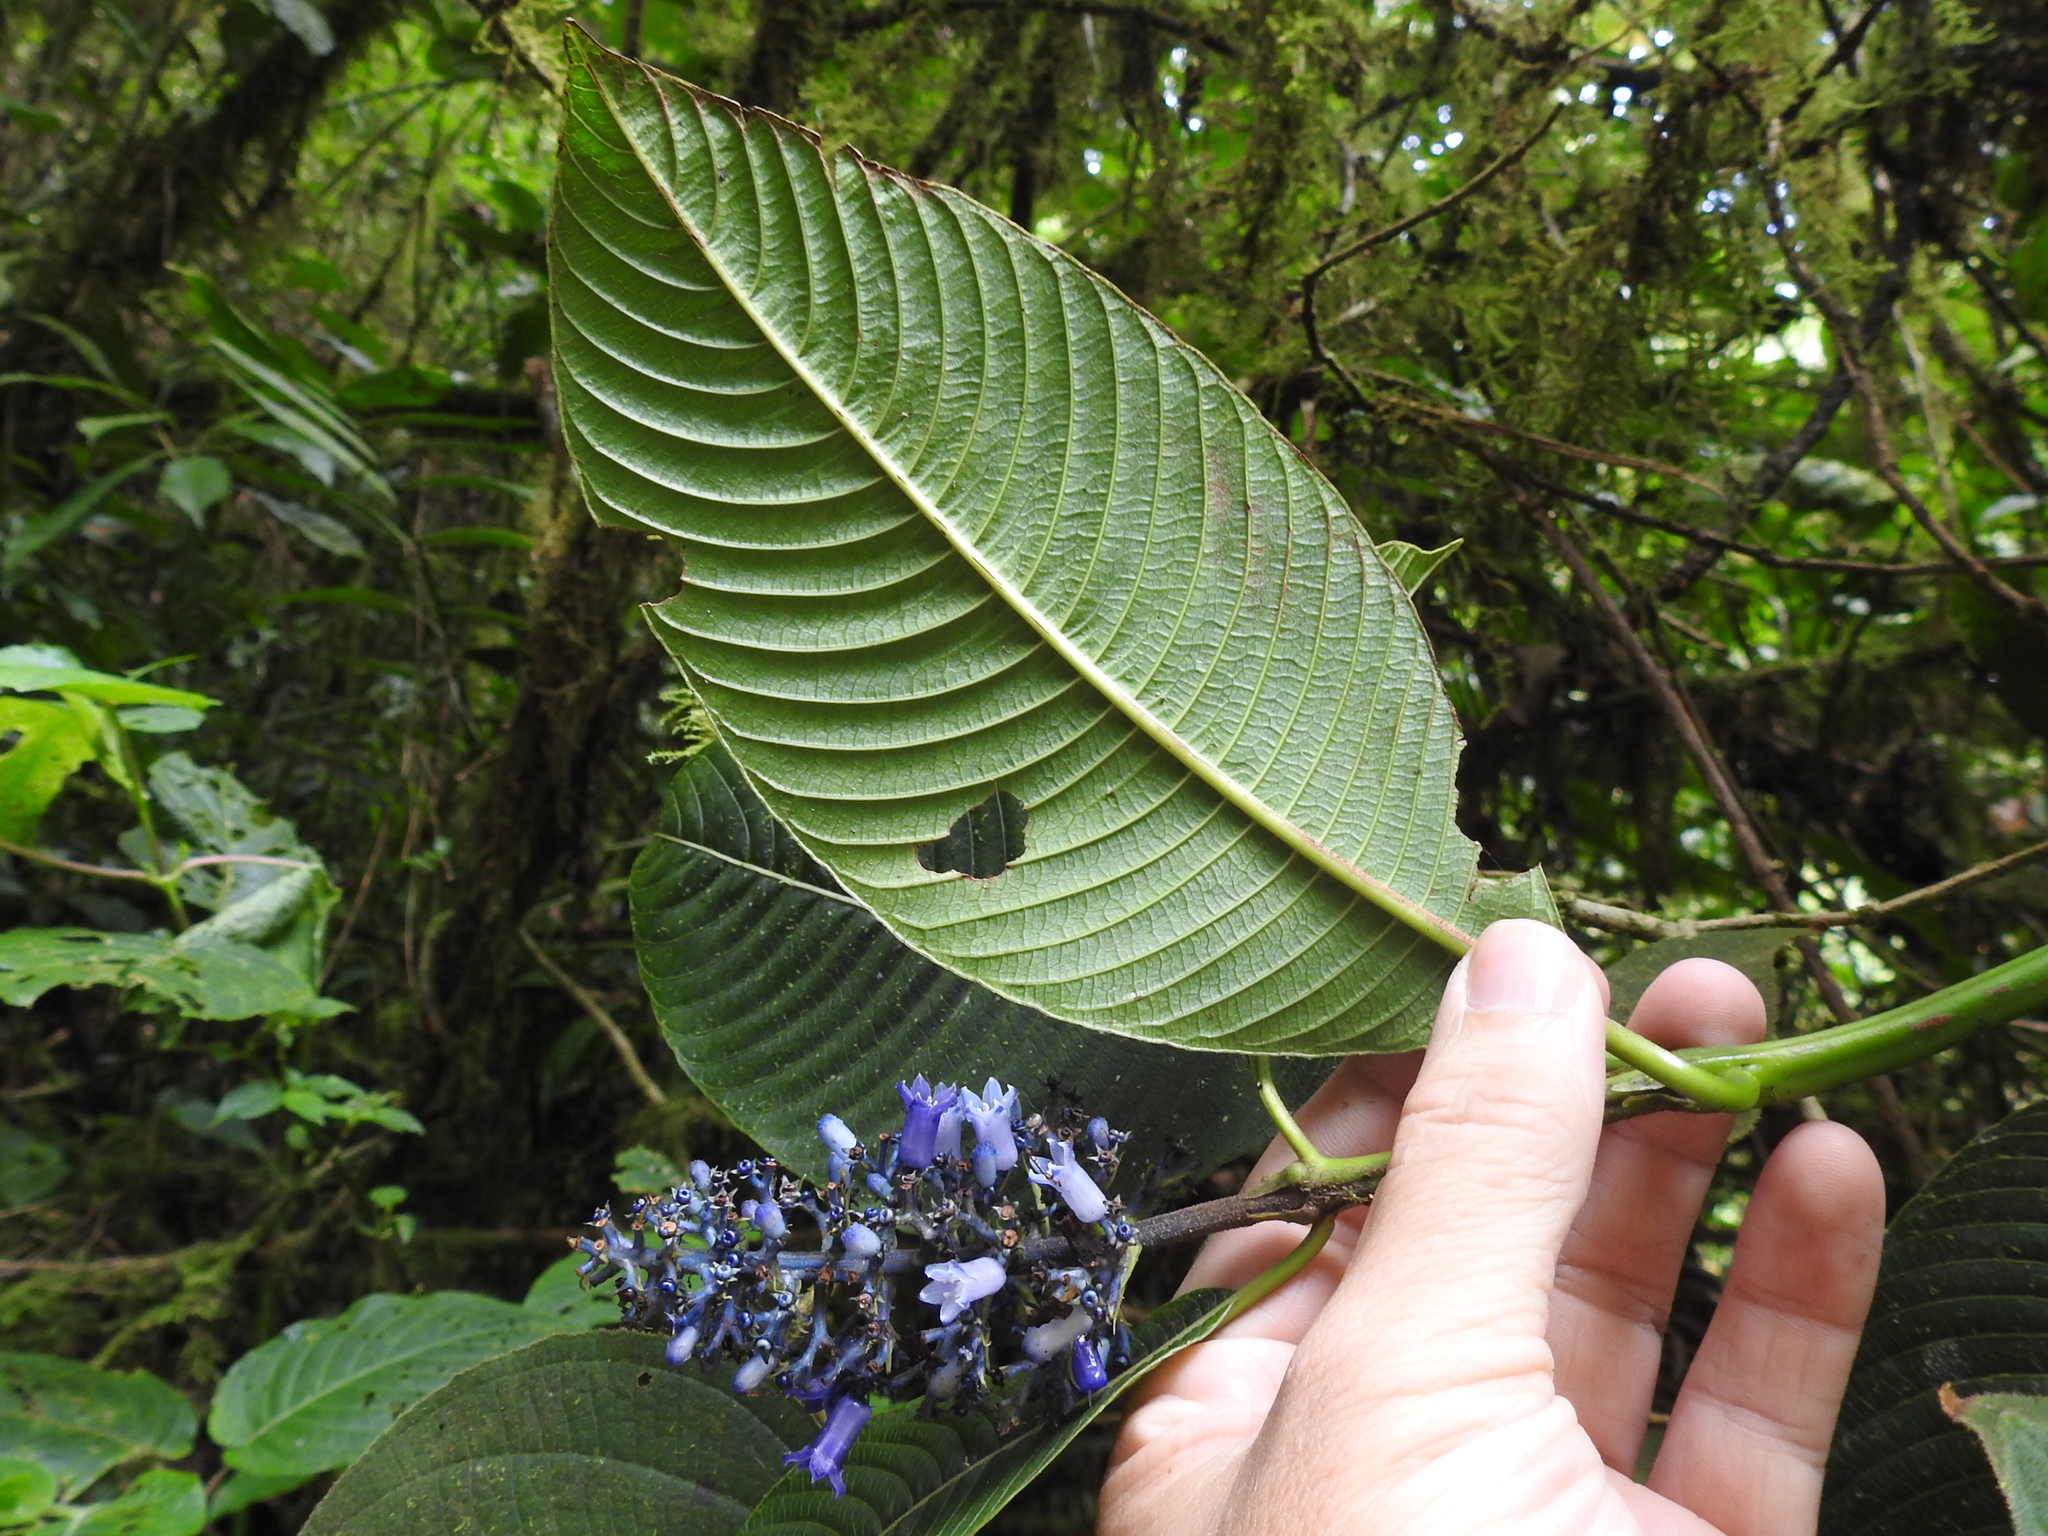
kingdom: Plantae
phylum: Tracheophyta
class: Magnoliopsida
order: Gentianales
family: Rubiaceae
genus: Palicourea
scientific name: Palicourea brenesii
